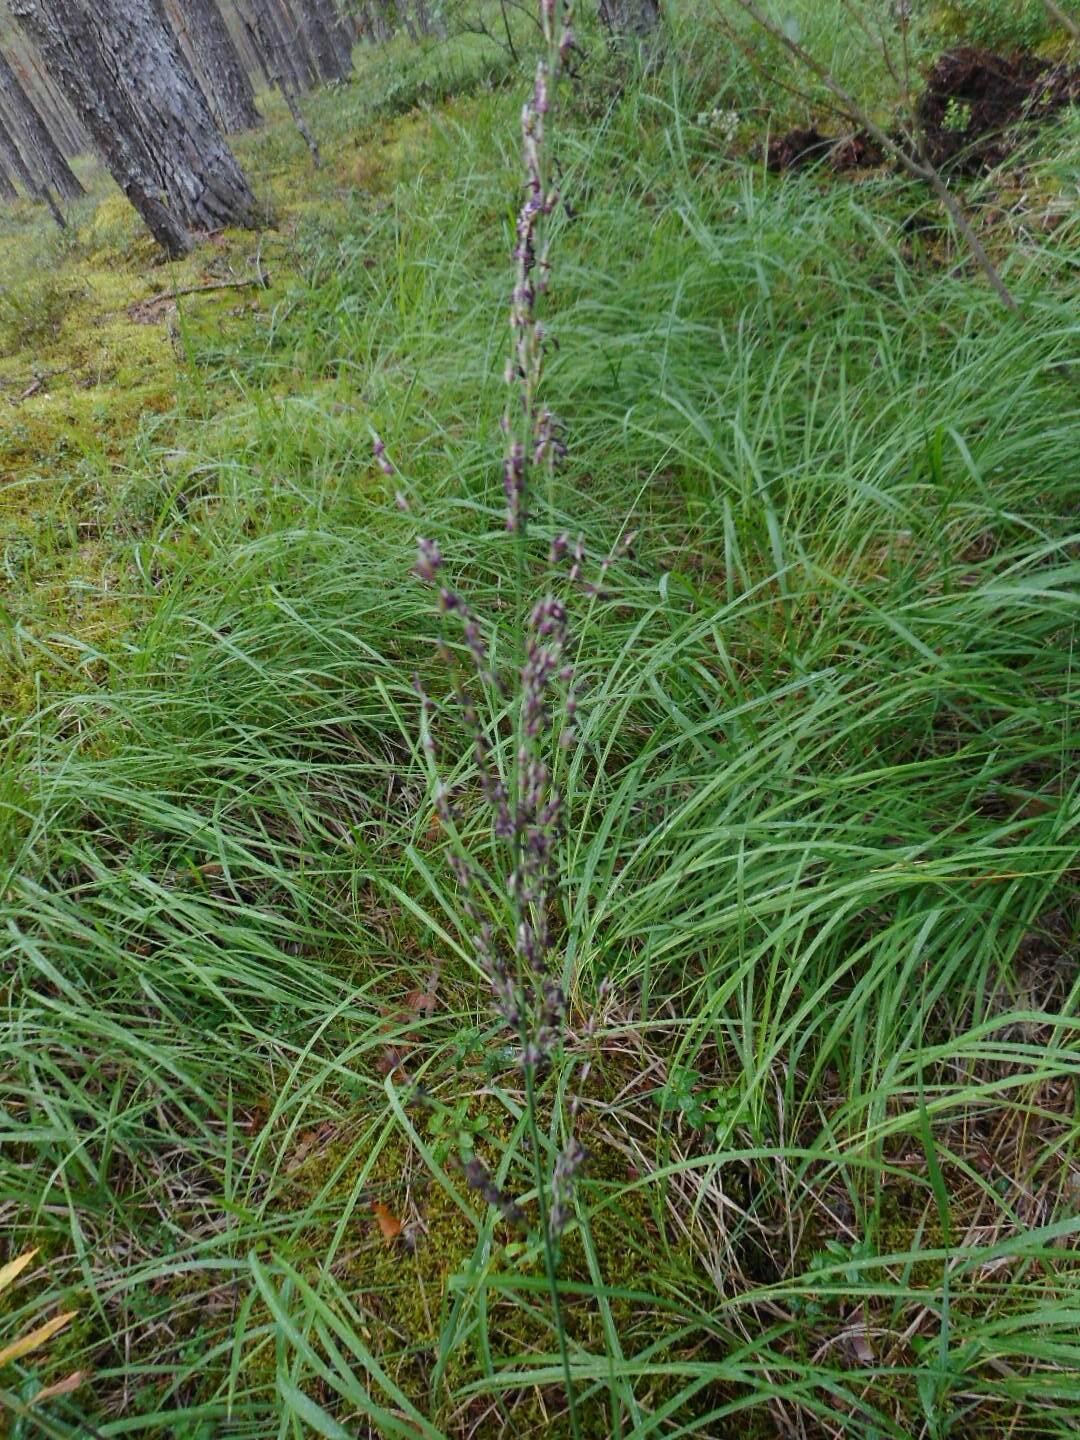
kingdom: Plantae
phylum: Tracheophyta
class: Liliopsida
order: Poales
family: Poaceae
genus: Molinia
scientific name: Molinia caerulea
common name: Purple moor-grass
